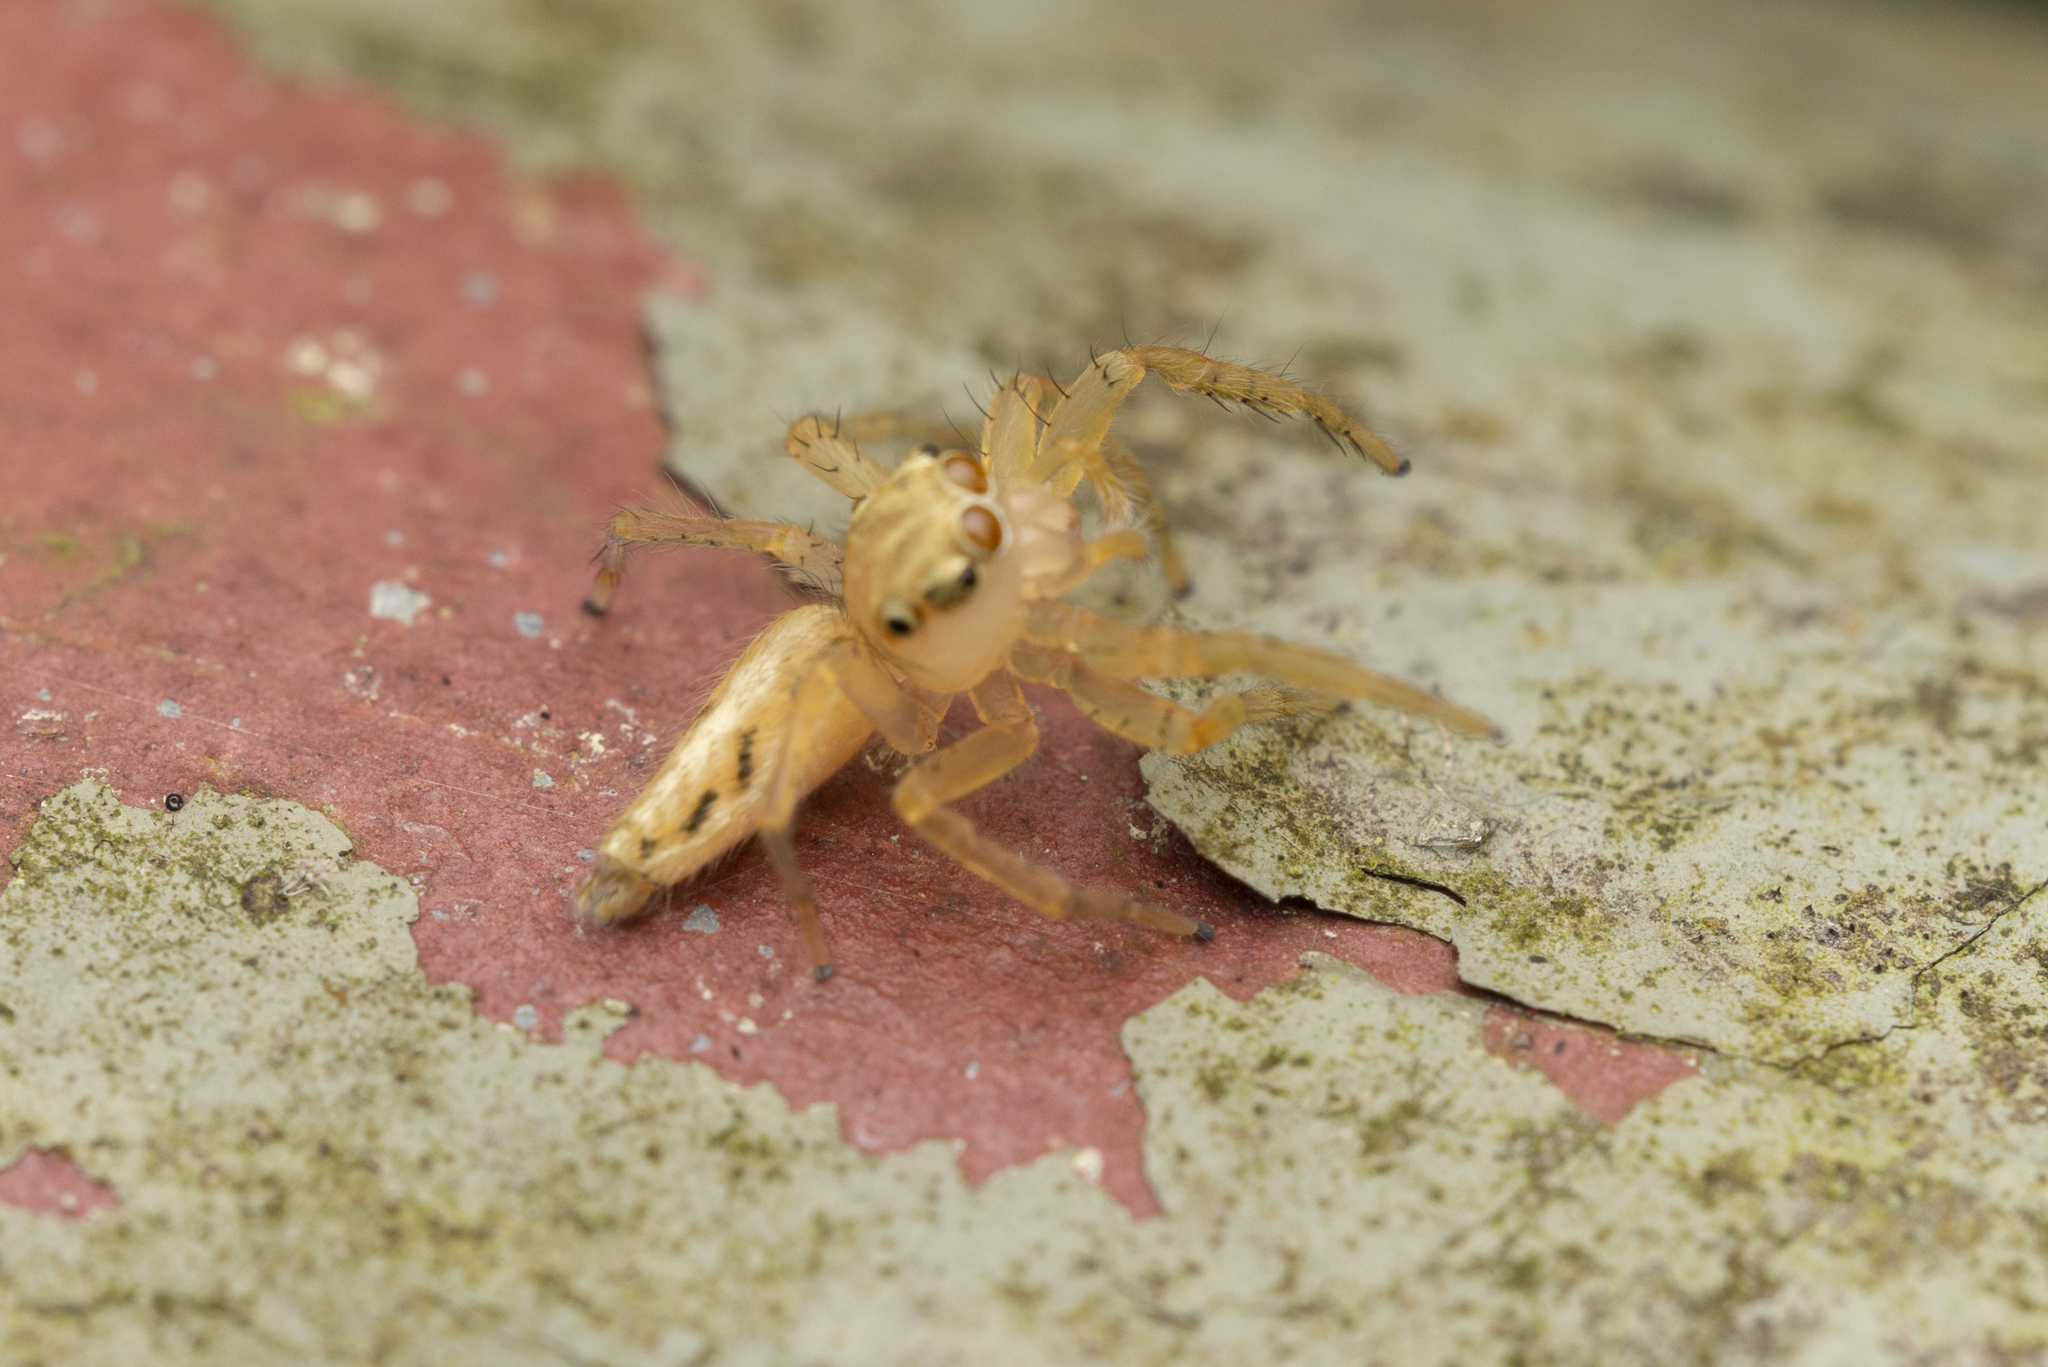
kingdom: Animalia
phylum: Arthropoda
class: Arachnida
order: Araneae
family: Salticidae
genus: Telamonia
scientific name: Telamonia caprina
